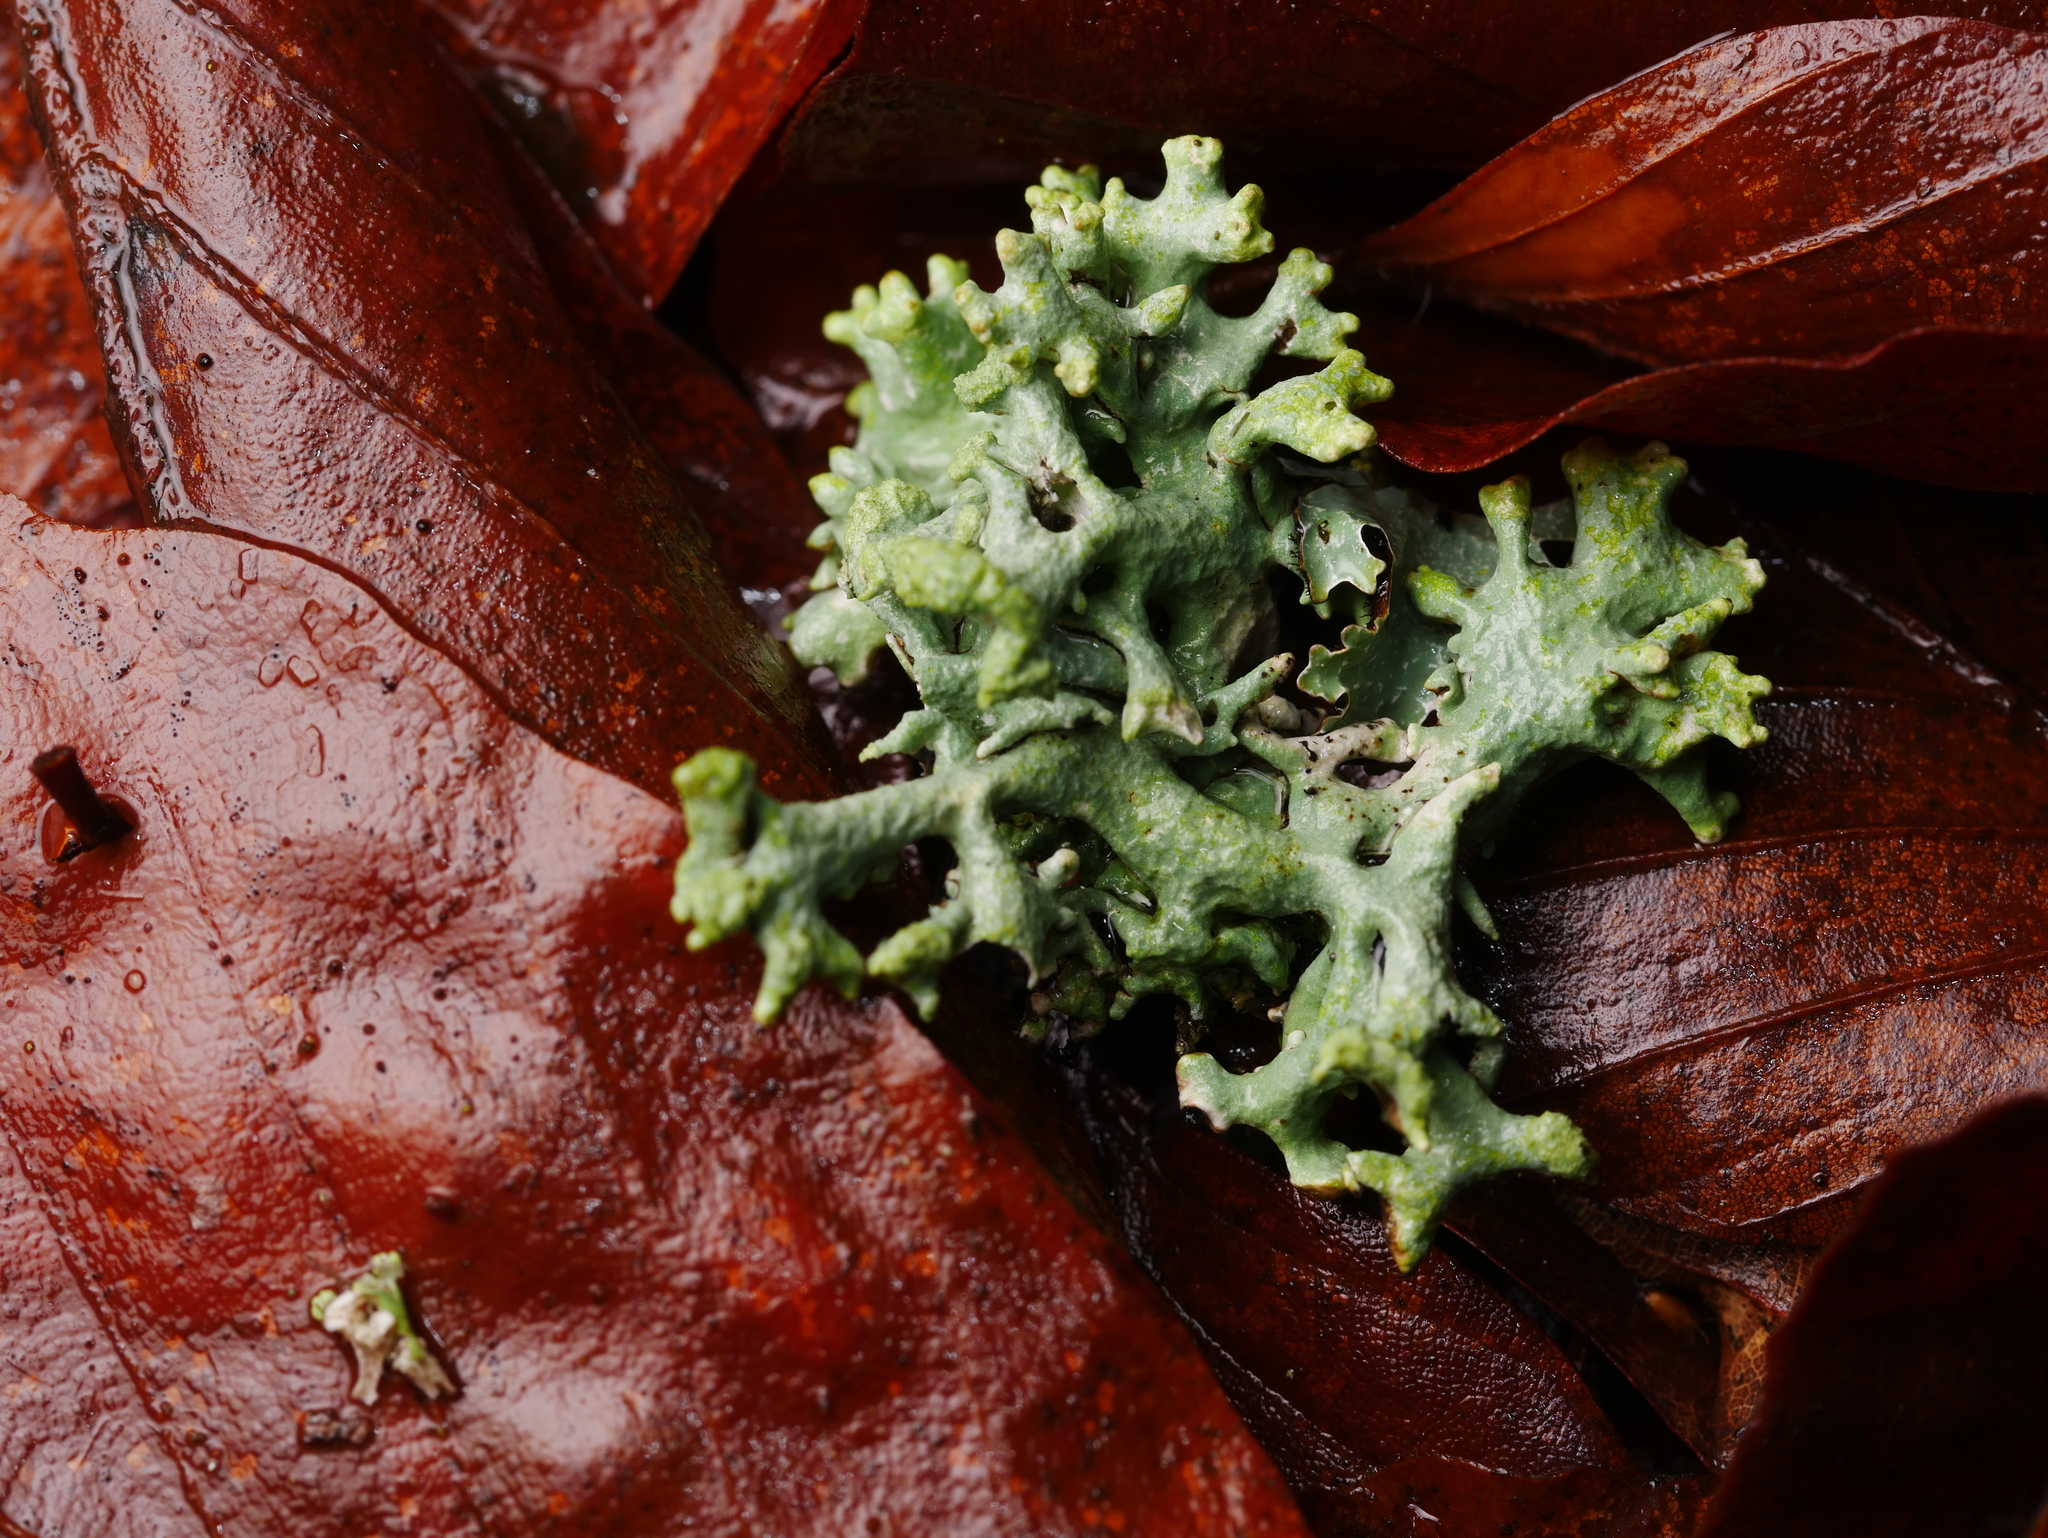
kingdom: Fungi
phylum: Ascomycota
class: Lecanoromycetes
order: Lecanorales
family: Parmeliaceae
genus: Hypogymnia
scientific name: Hypogymnia tubulosa
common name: Powder-headed tube lichen
